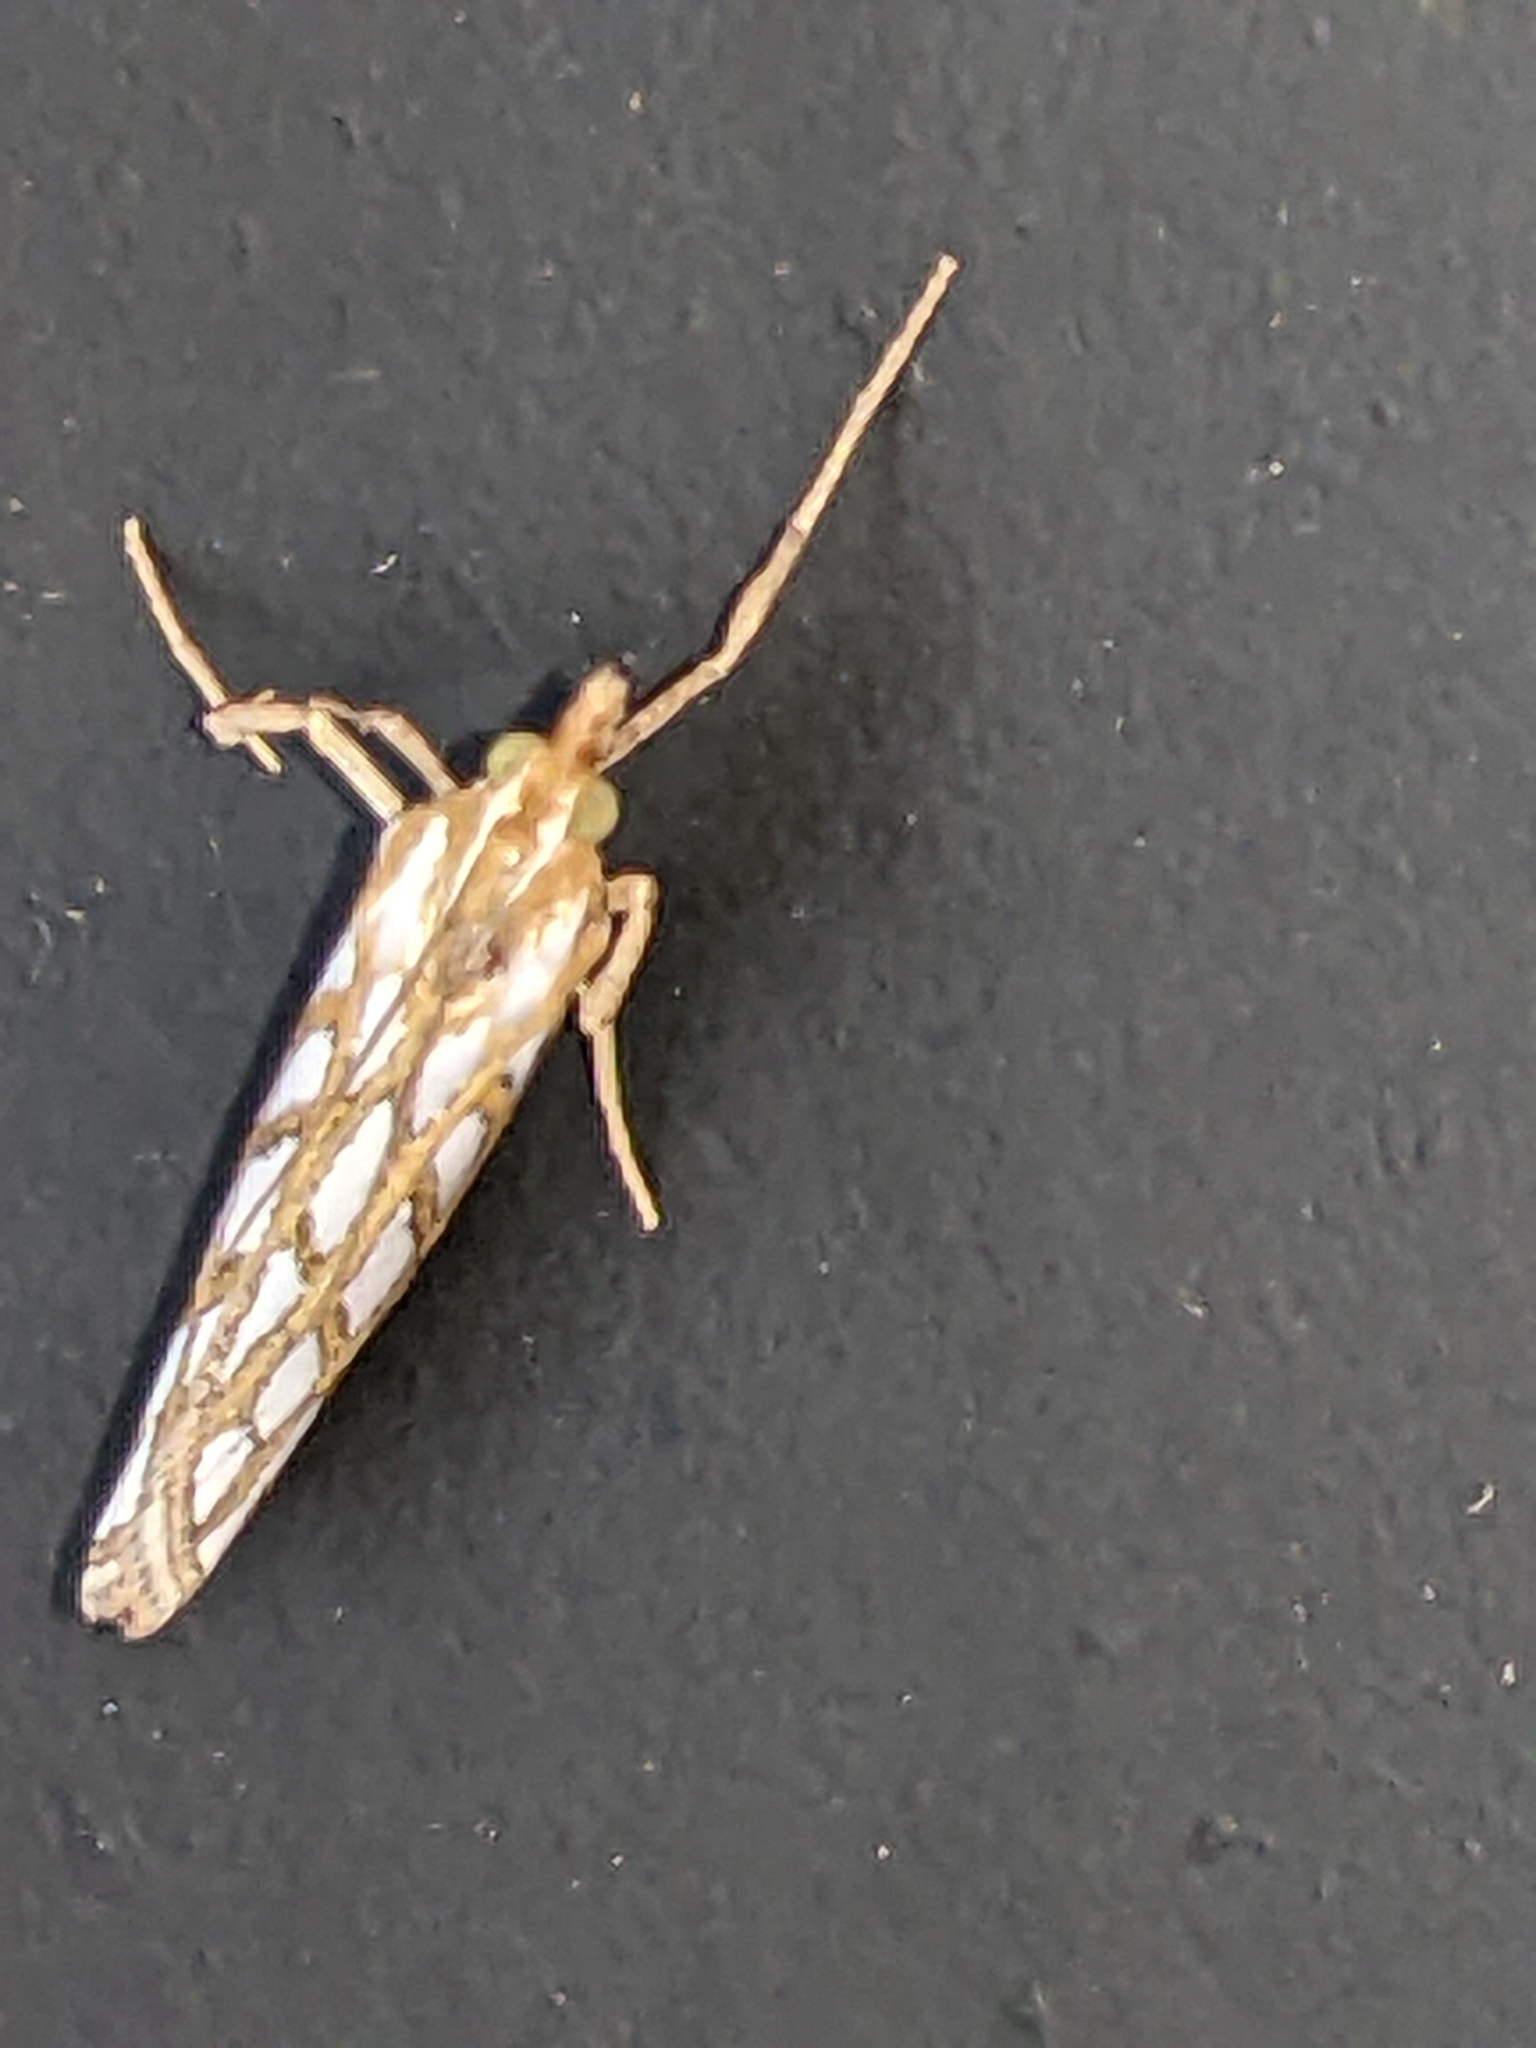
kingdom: Animalia
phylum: Arthropoda
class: Insecta
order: Lepidoptera
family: Geometridae
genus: Argyrophora
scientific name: Argyrophora trofonia
